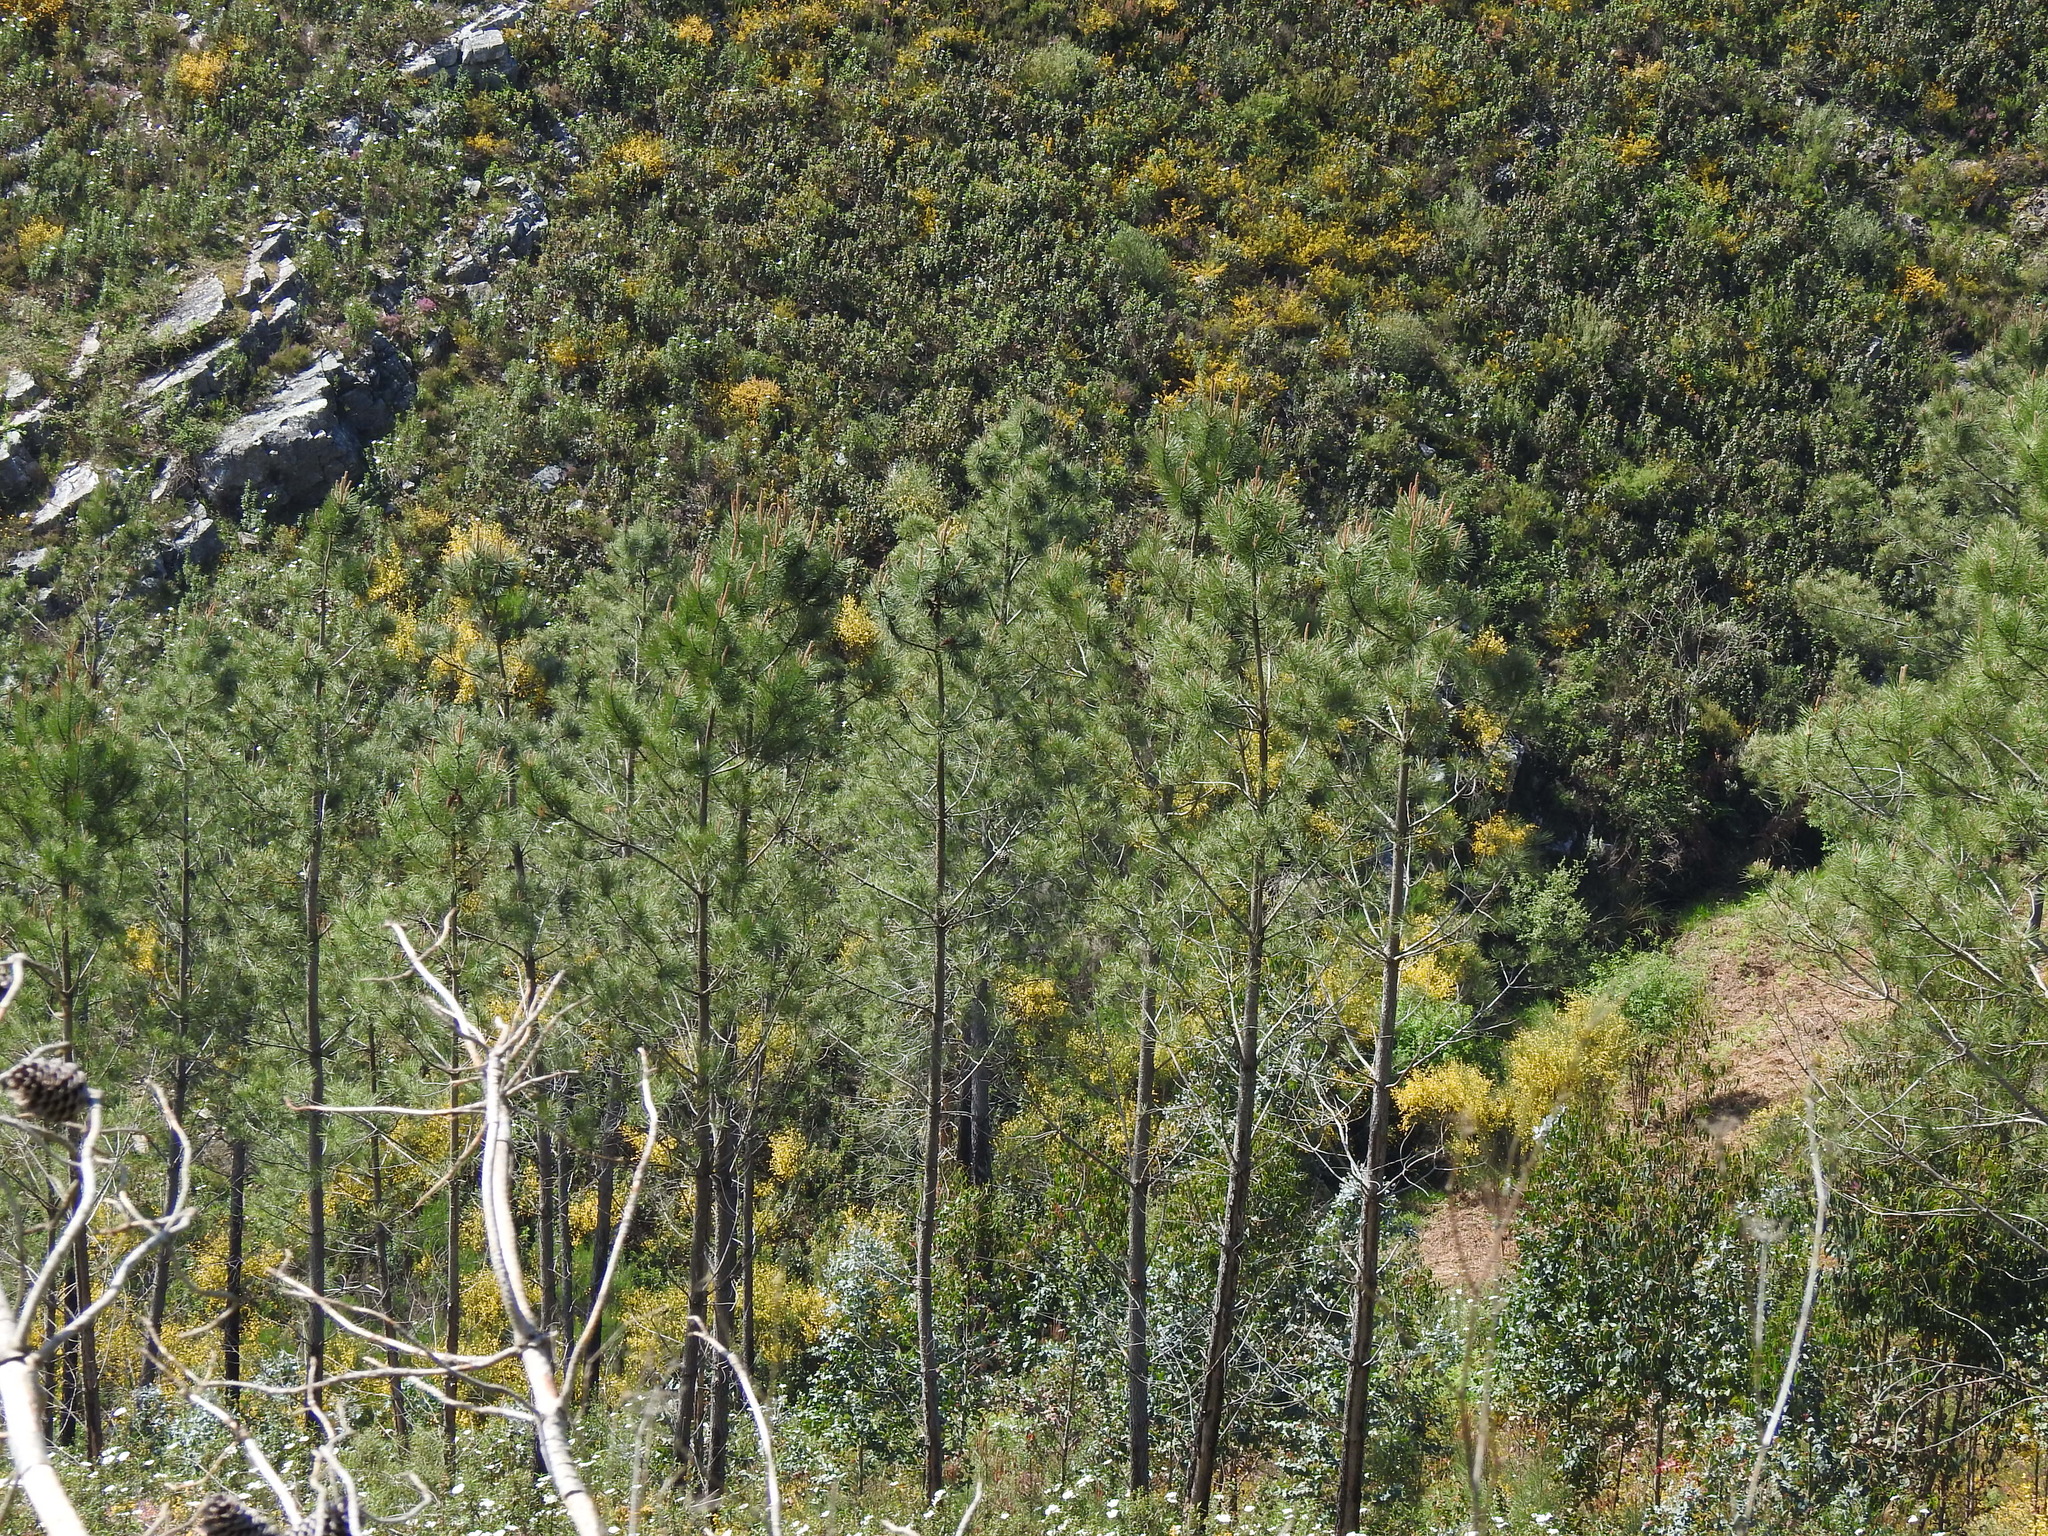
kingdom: Plantae
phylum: Tracheophyta
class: Pinopsida
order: Pinales
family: Pinaceae
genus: Pinus
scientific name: Pinus pinaster
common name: Maritime pine
